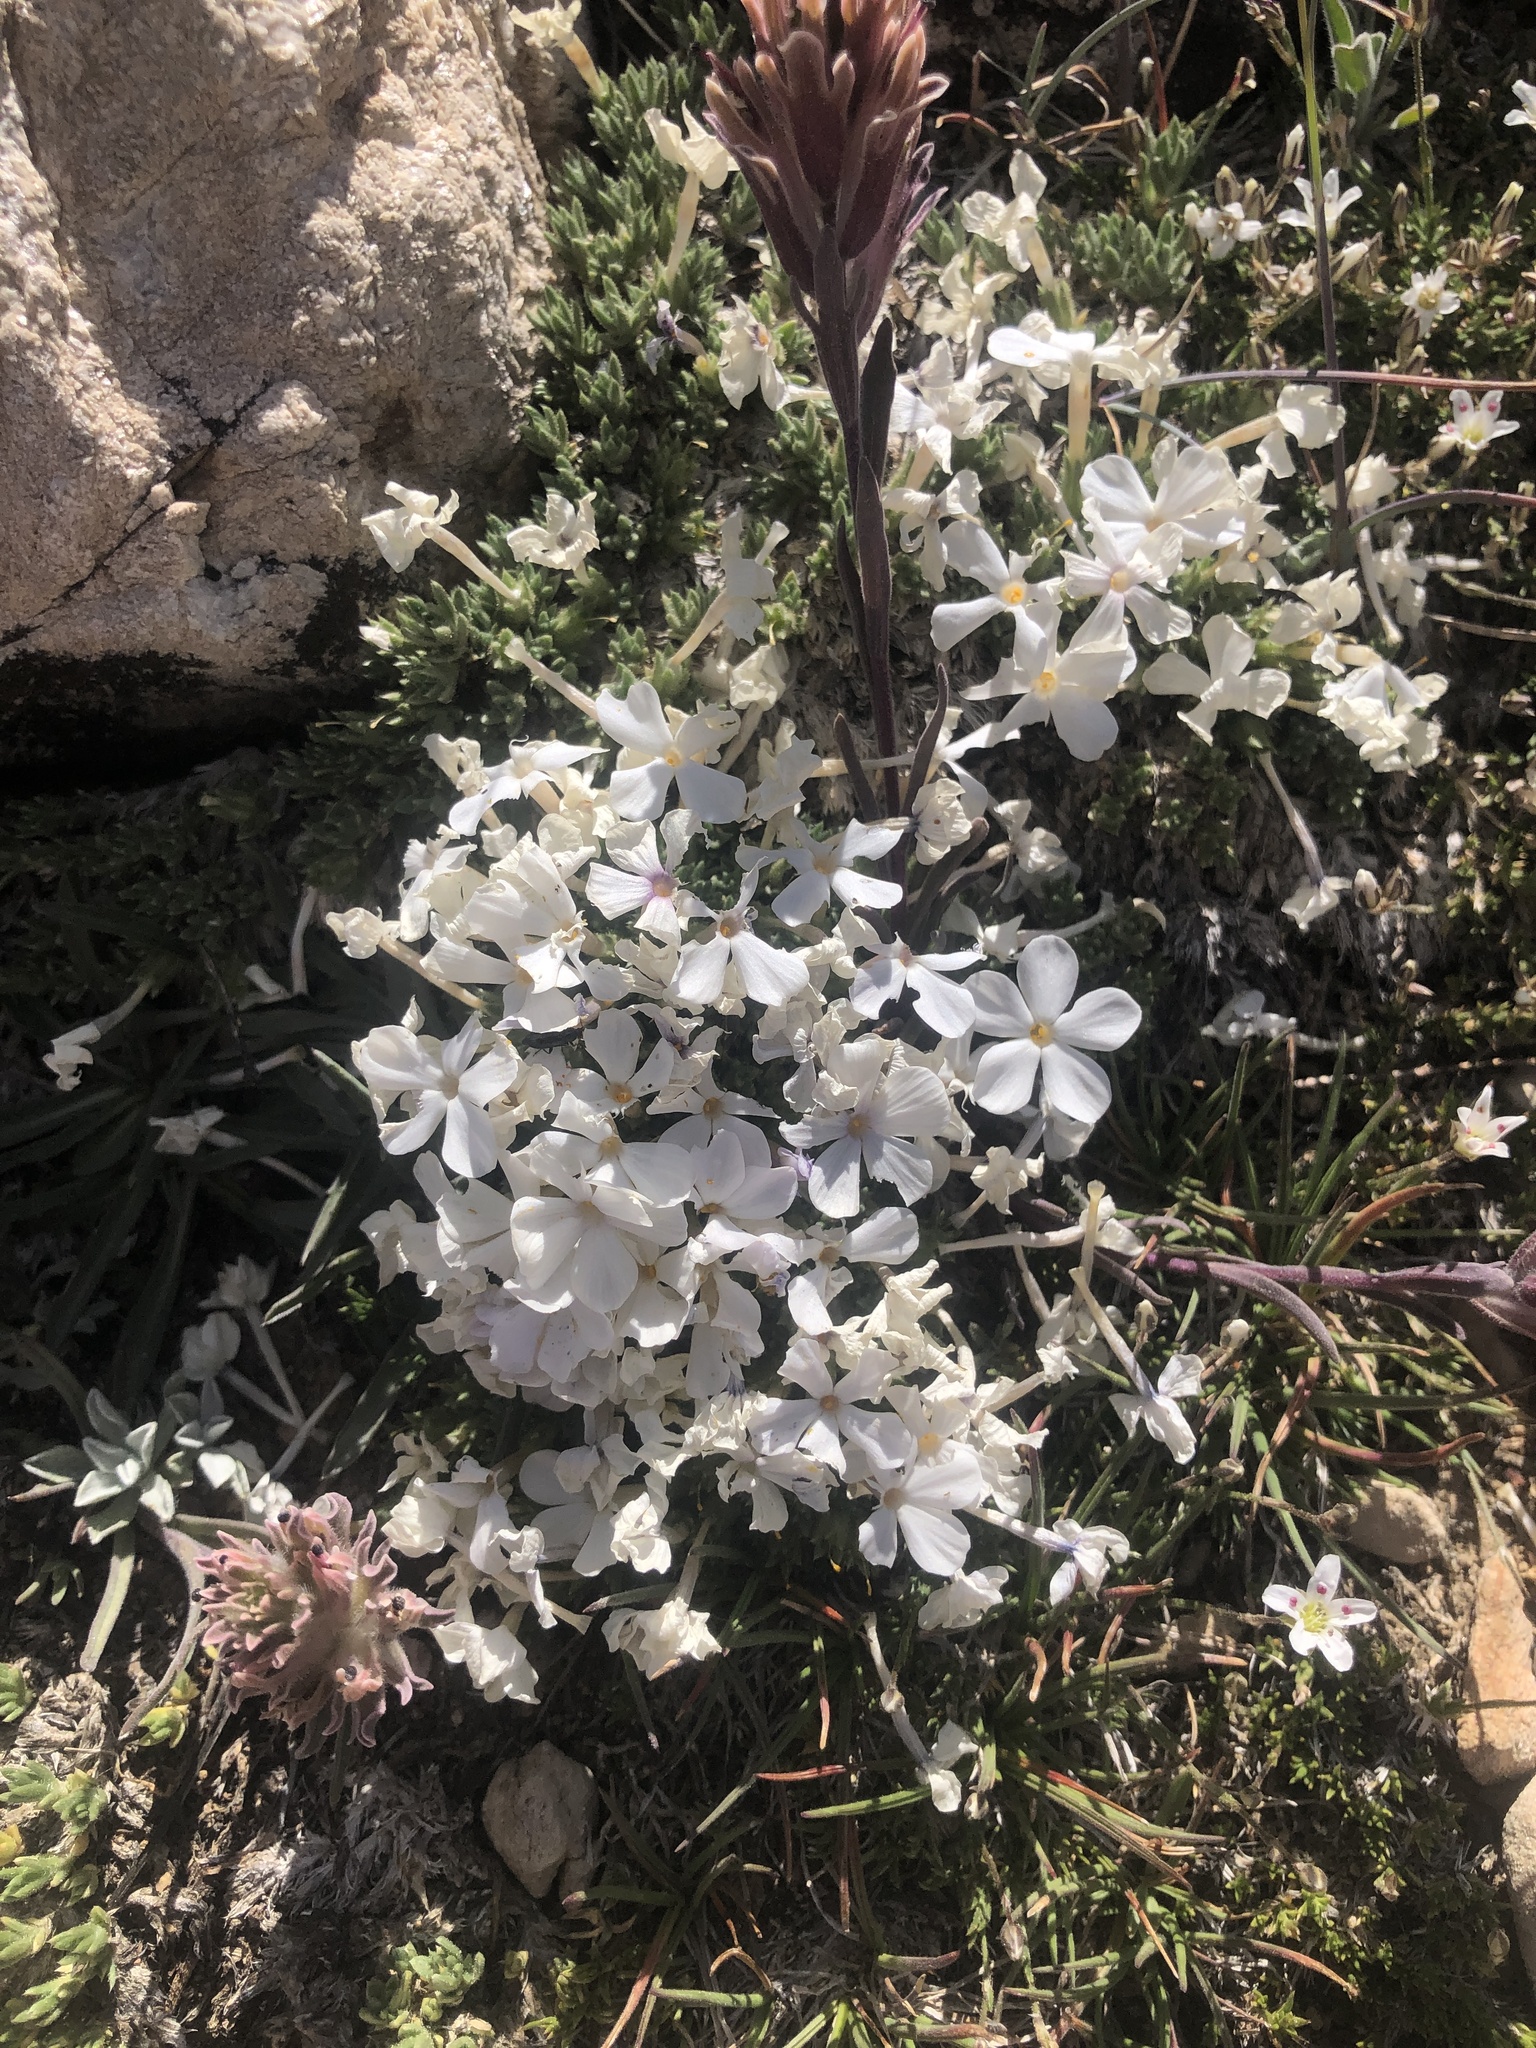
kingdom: Plantae
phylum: Tracheophyta
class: Magnoliopsida
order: Ericales
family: Polemoniaceae
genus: Phlox
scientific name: Phlox condensata
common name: Compact phlox
